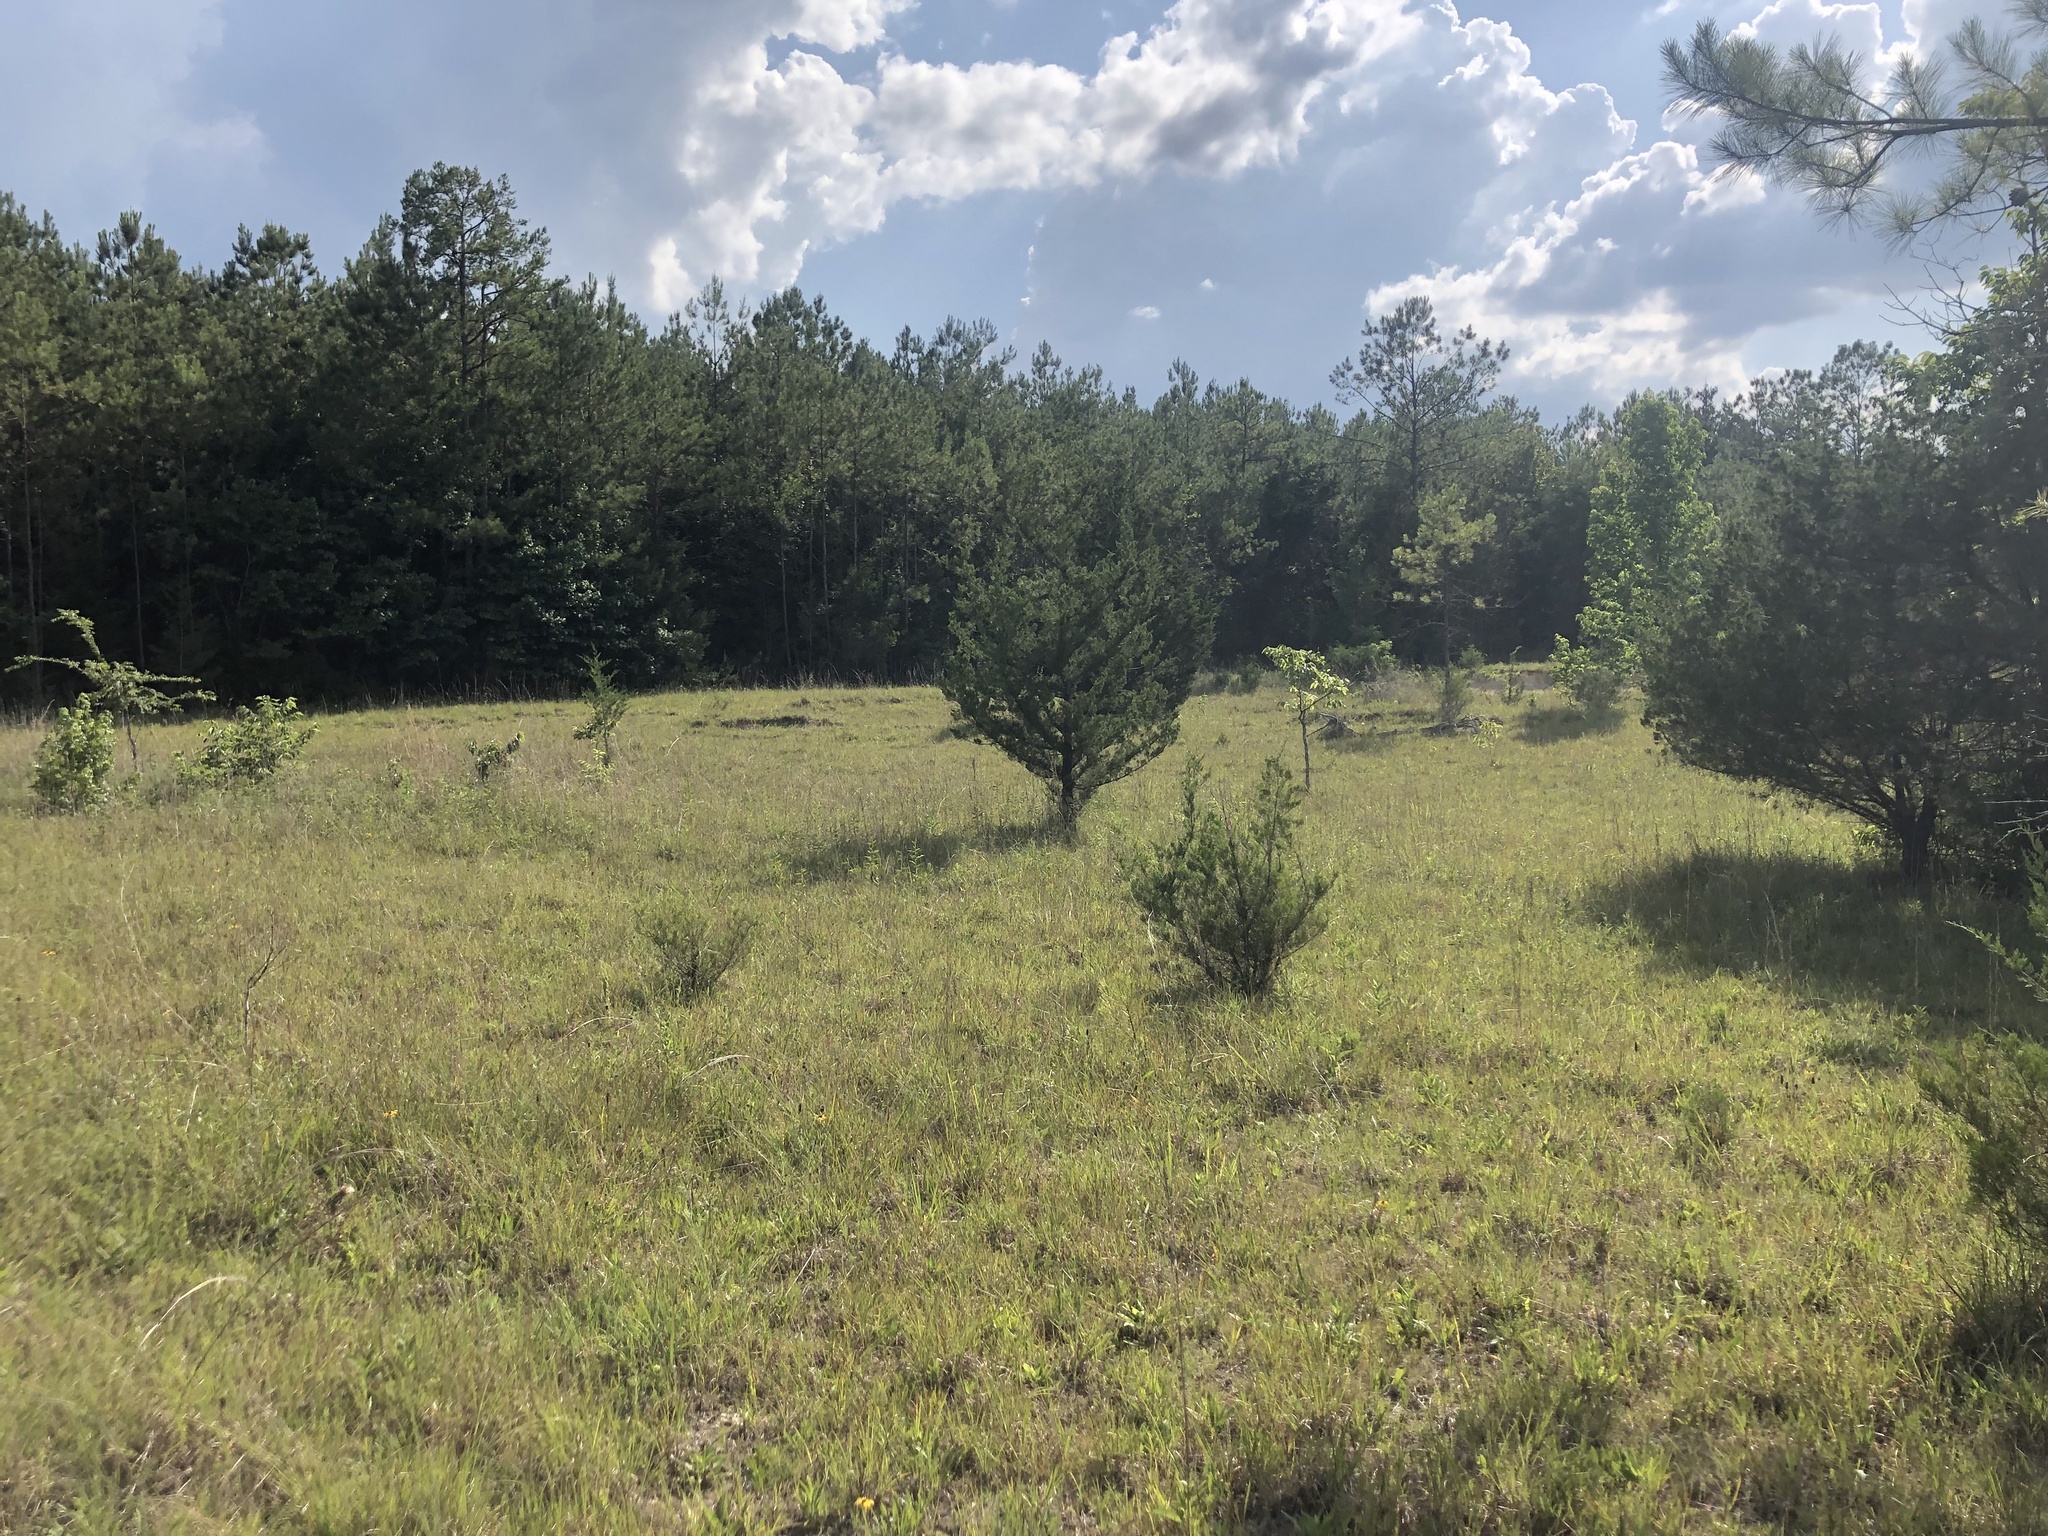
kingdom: Plantae
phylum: Tracheophyta
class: Liliopsida
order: Poales
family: Poaceae
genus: Schizachyrium
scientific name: Schizachyrium scoparium
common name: Little bluestem
